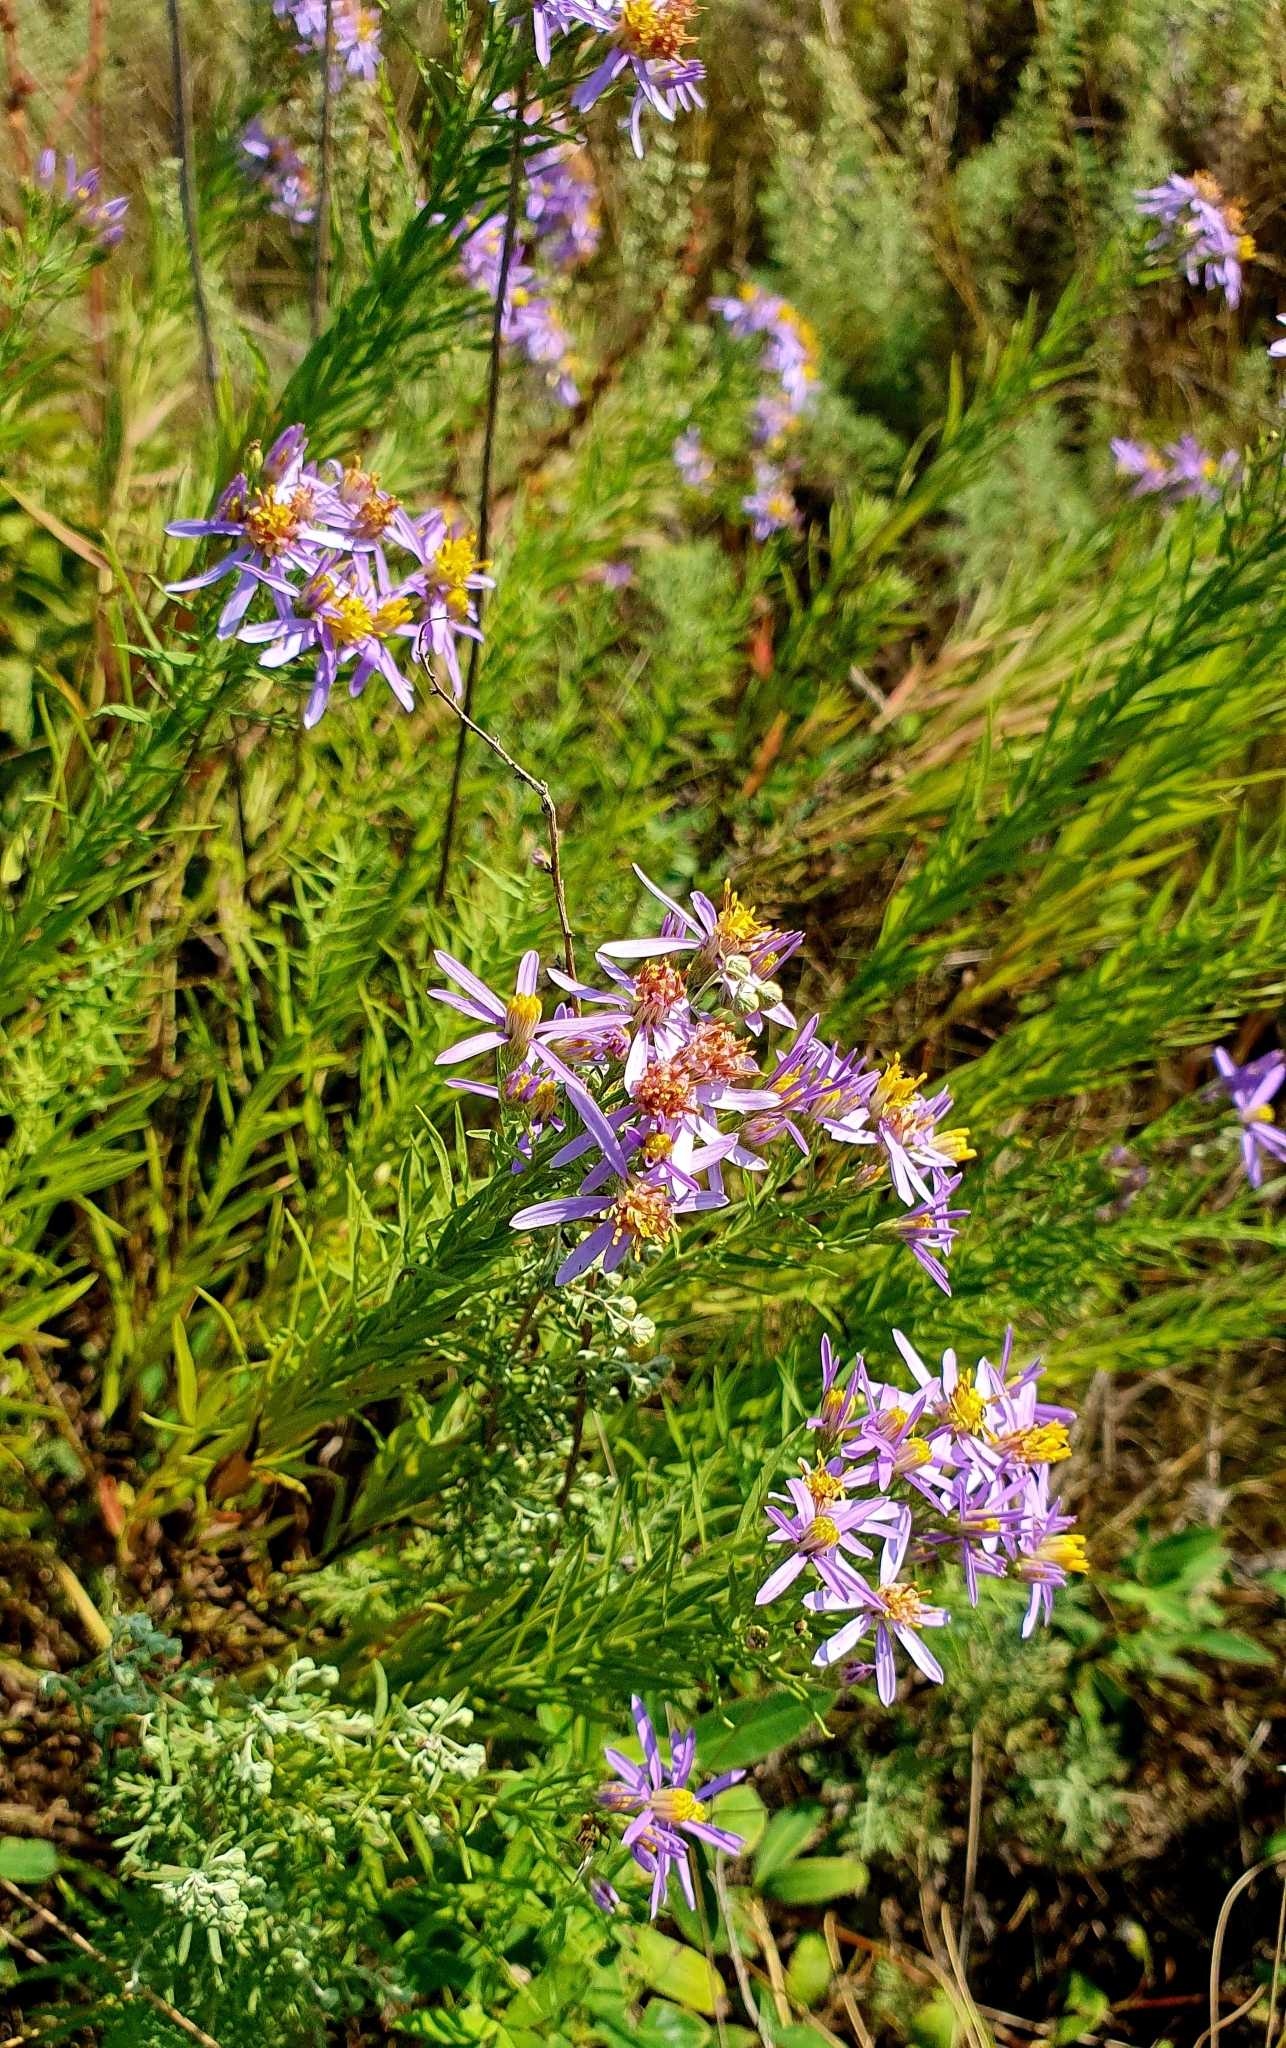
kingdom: Plantae
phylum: Tracheophyta
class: Magnoliopsida
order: Asterales
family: Asteraceae
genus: Galatella
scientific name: Galatella sedifolia
